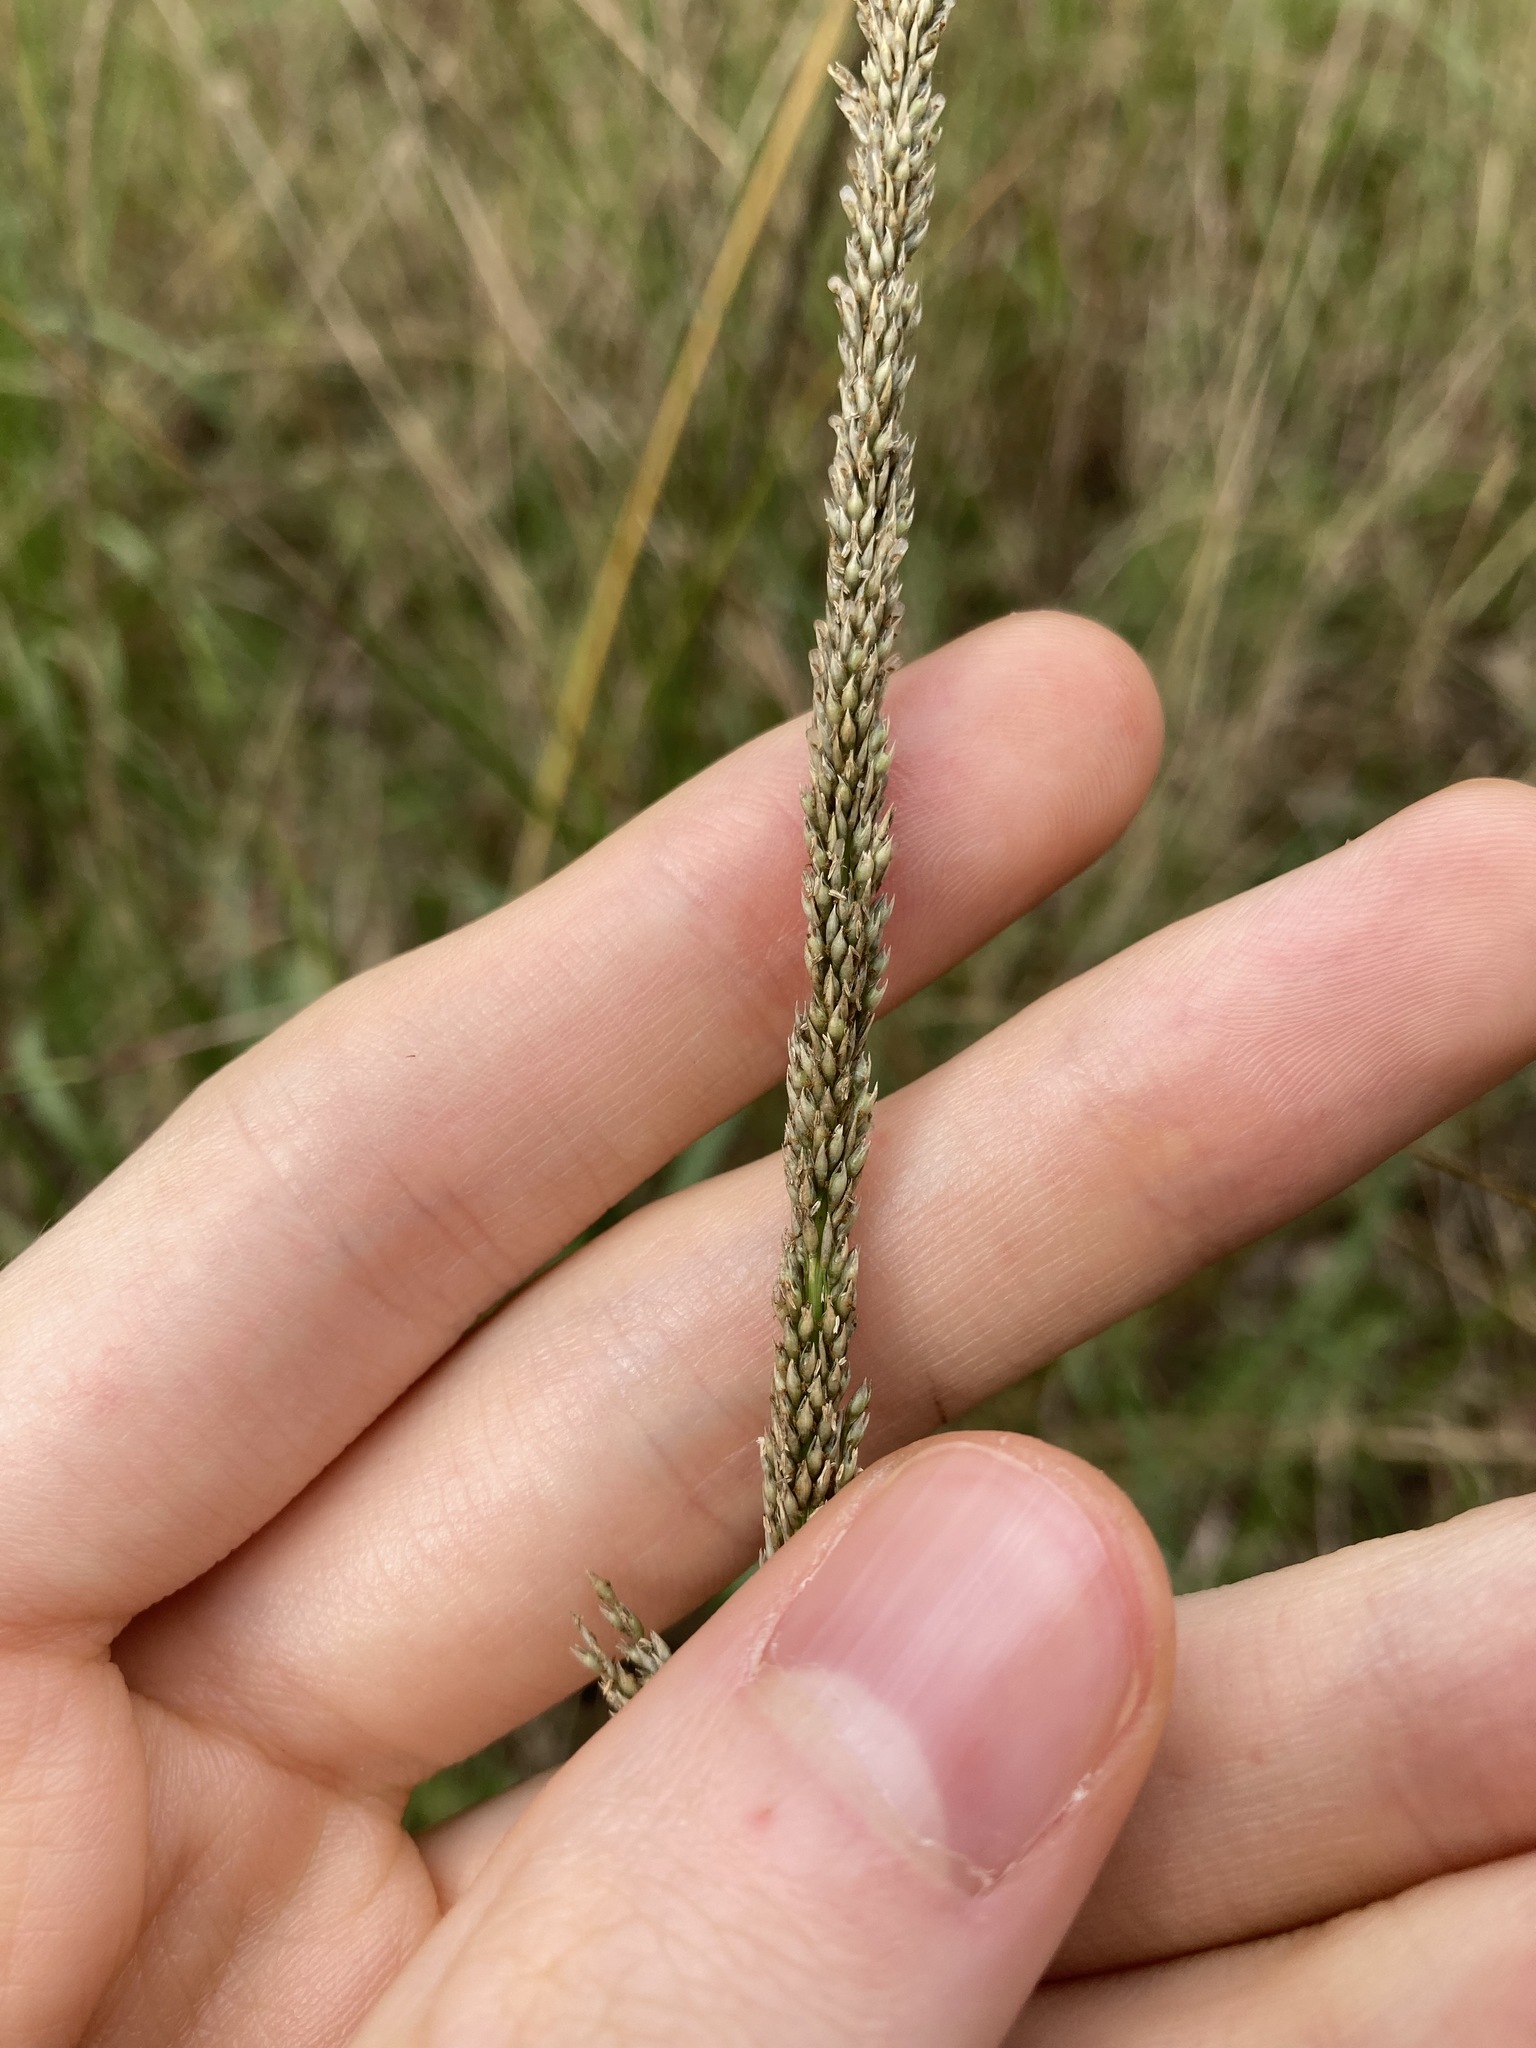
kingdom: Plantae
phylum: Tracheophyta
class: Liliopsida
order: Poales
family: Poaceae
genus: Sporobolus
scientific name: Sporobolus africanus
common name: African dropseed
